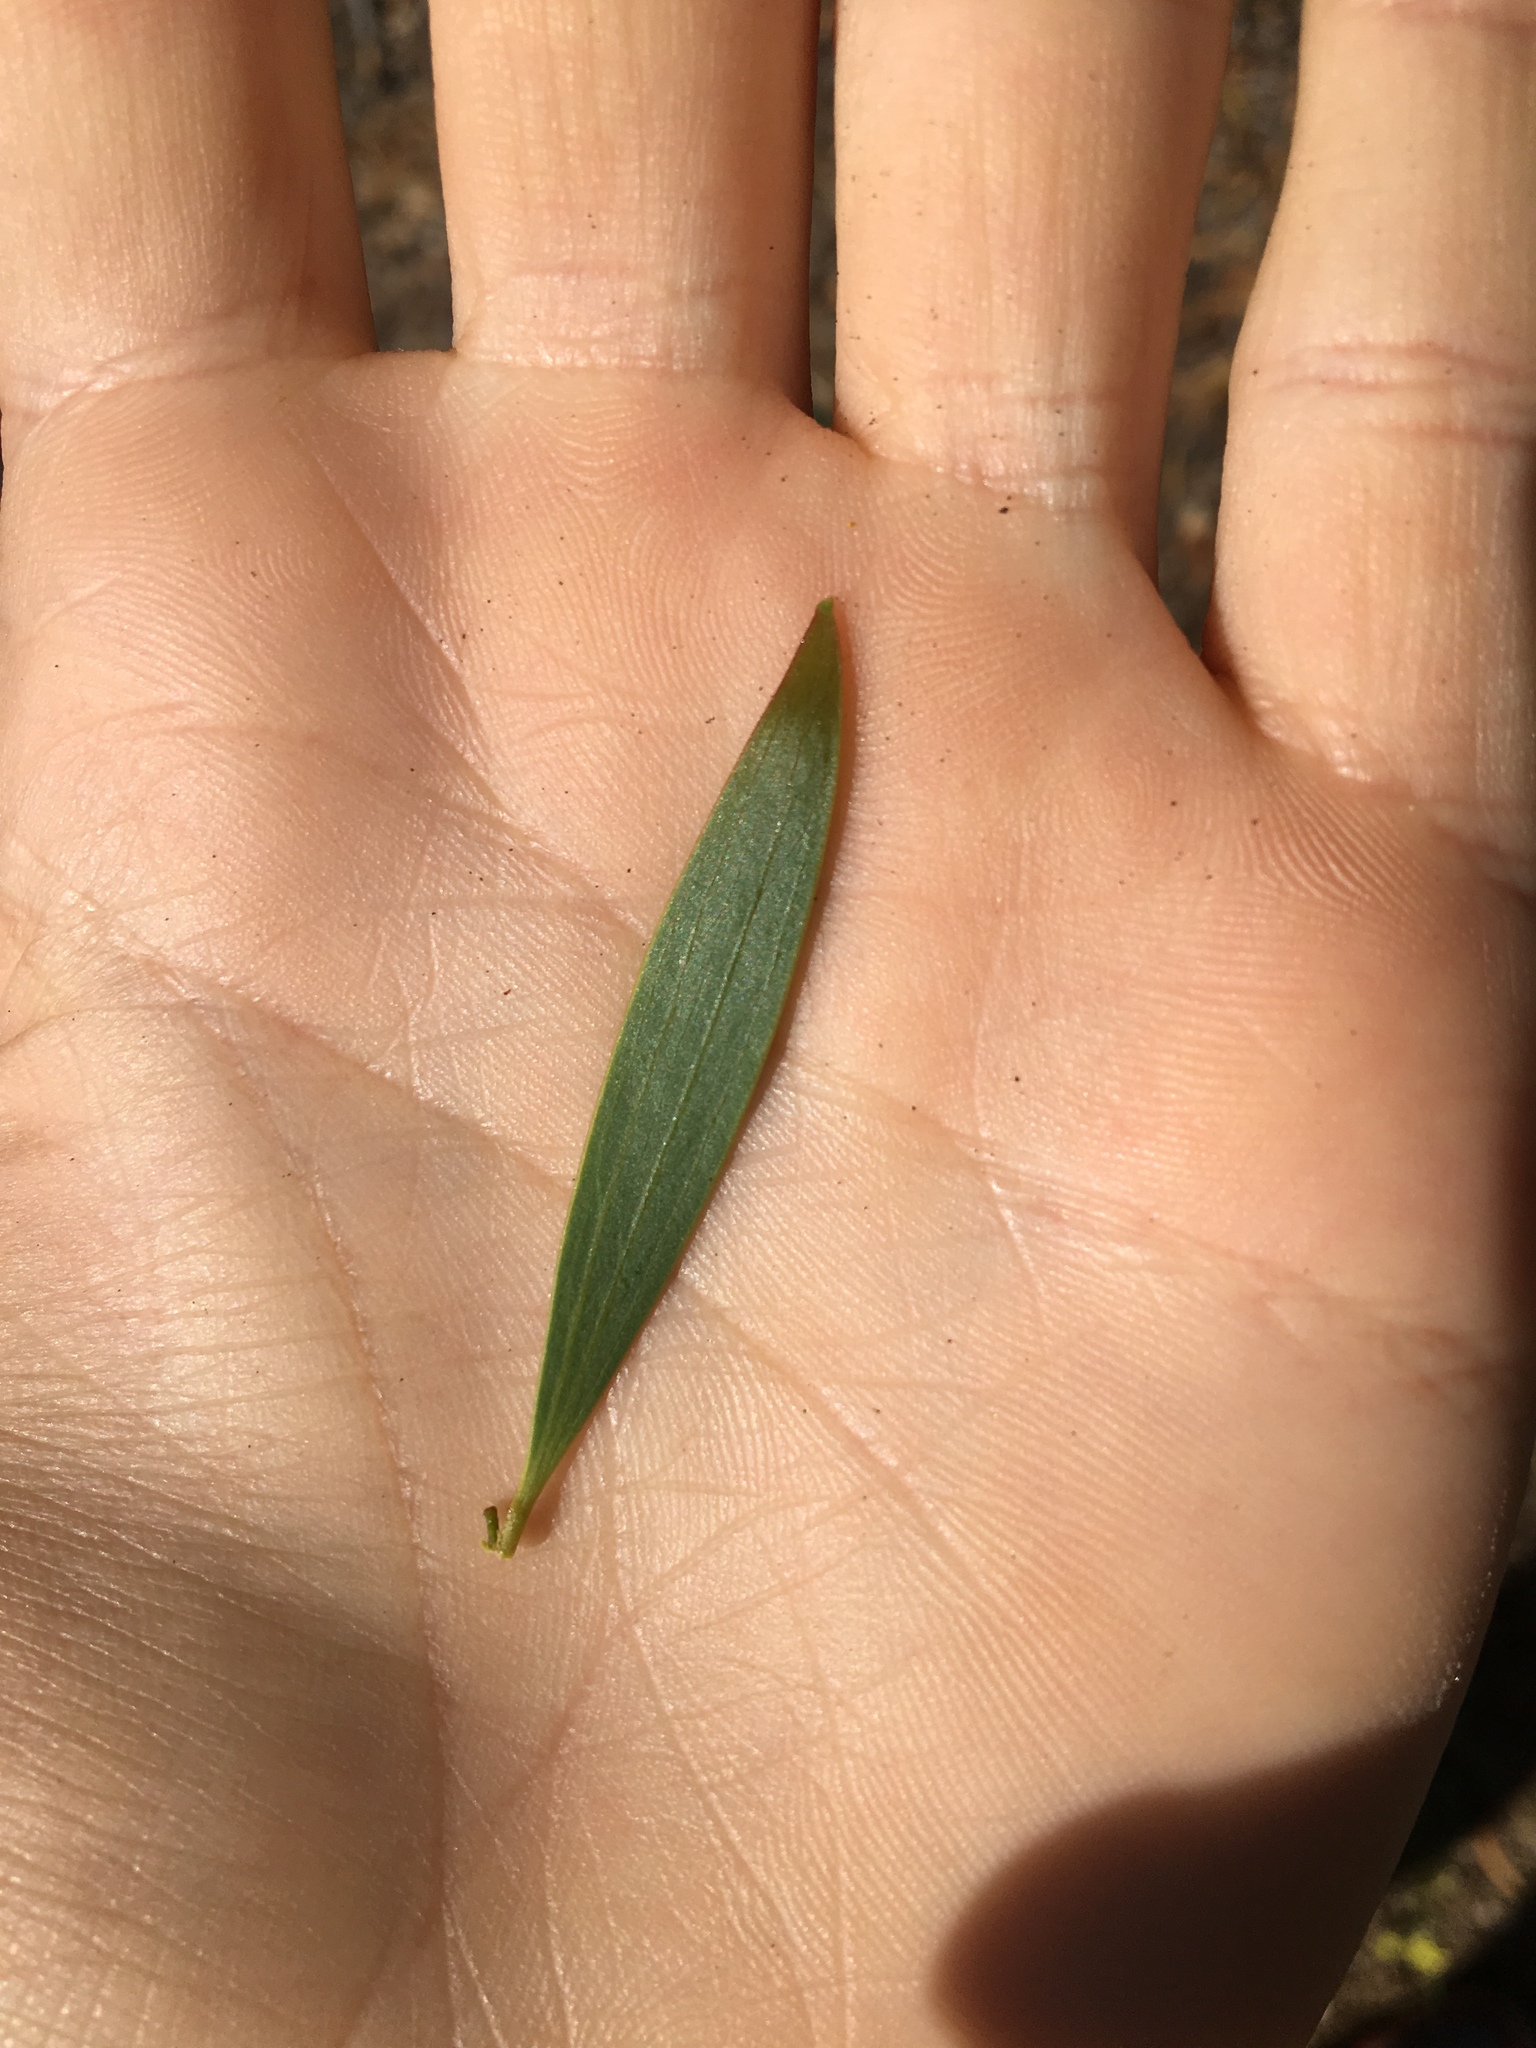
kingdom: Plantae
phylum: Tracheophyta
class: Magnoliopsida
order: Fabales
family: Fabaceae
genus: Acacia
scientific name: Acacia cyclops
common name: Coastal wattle
